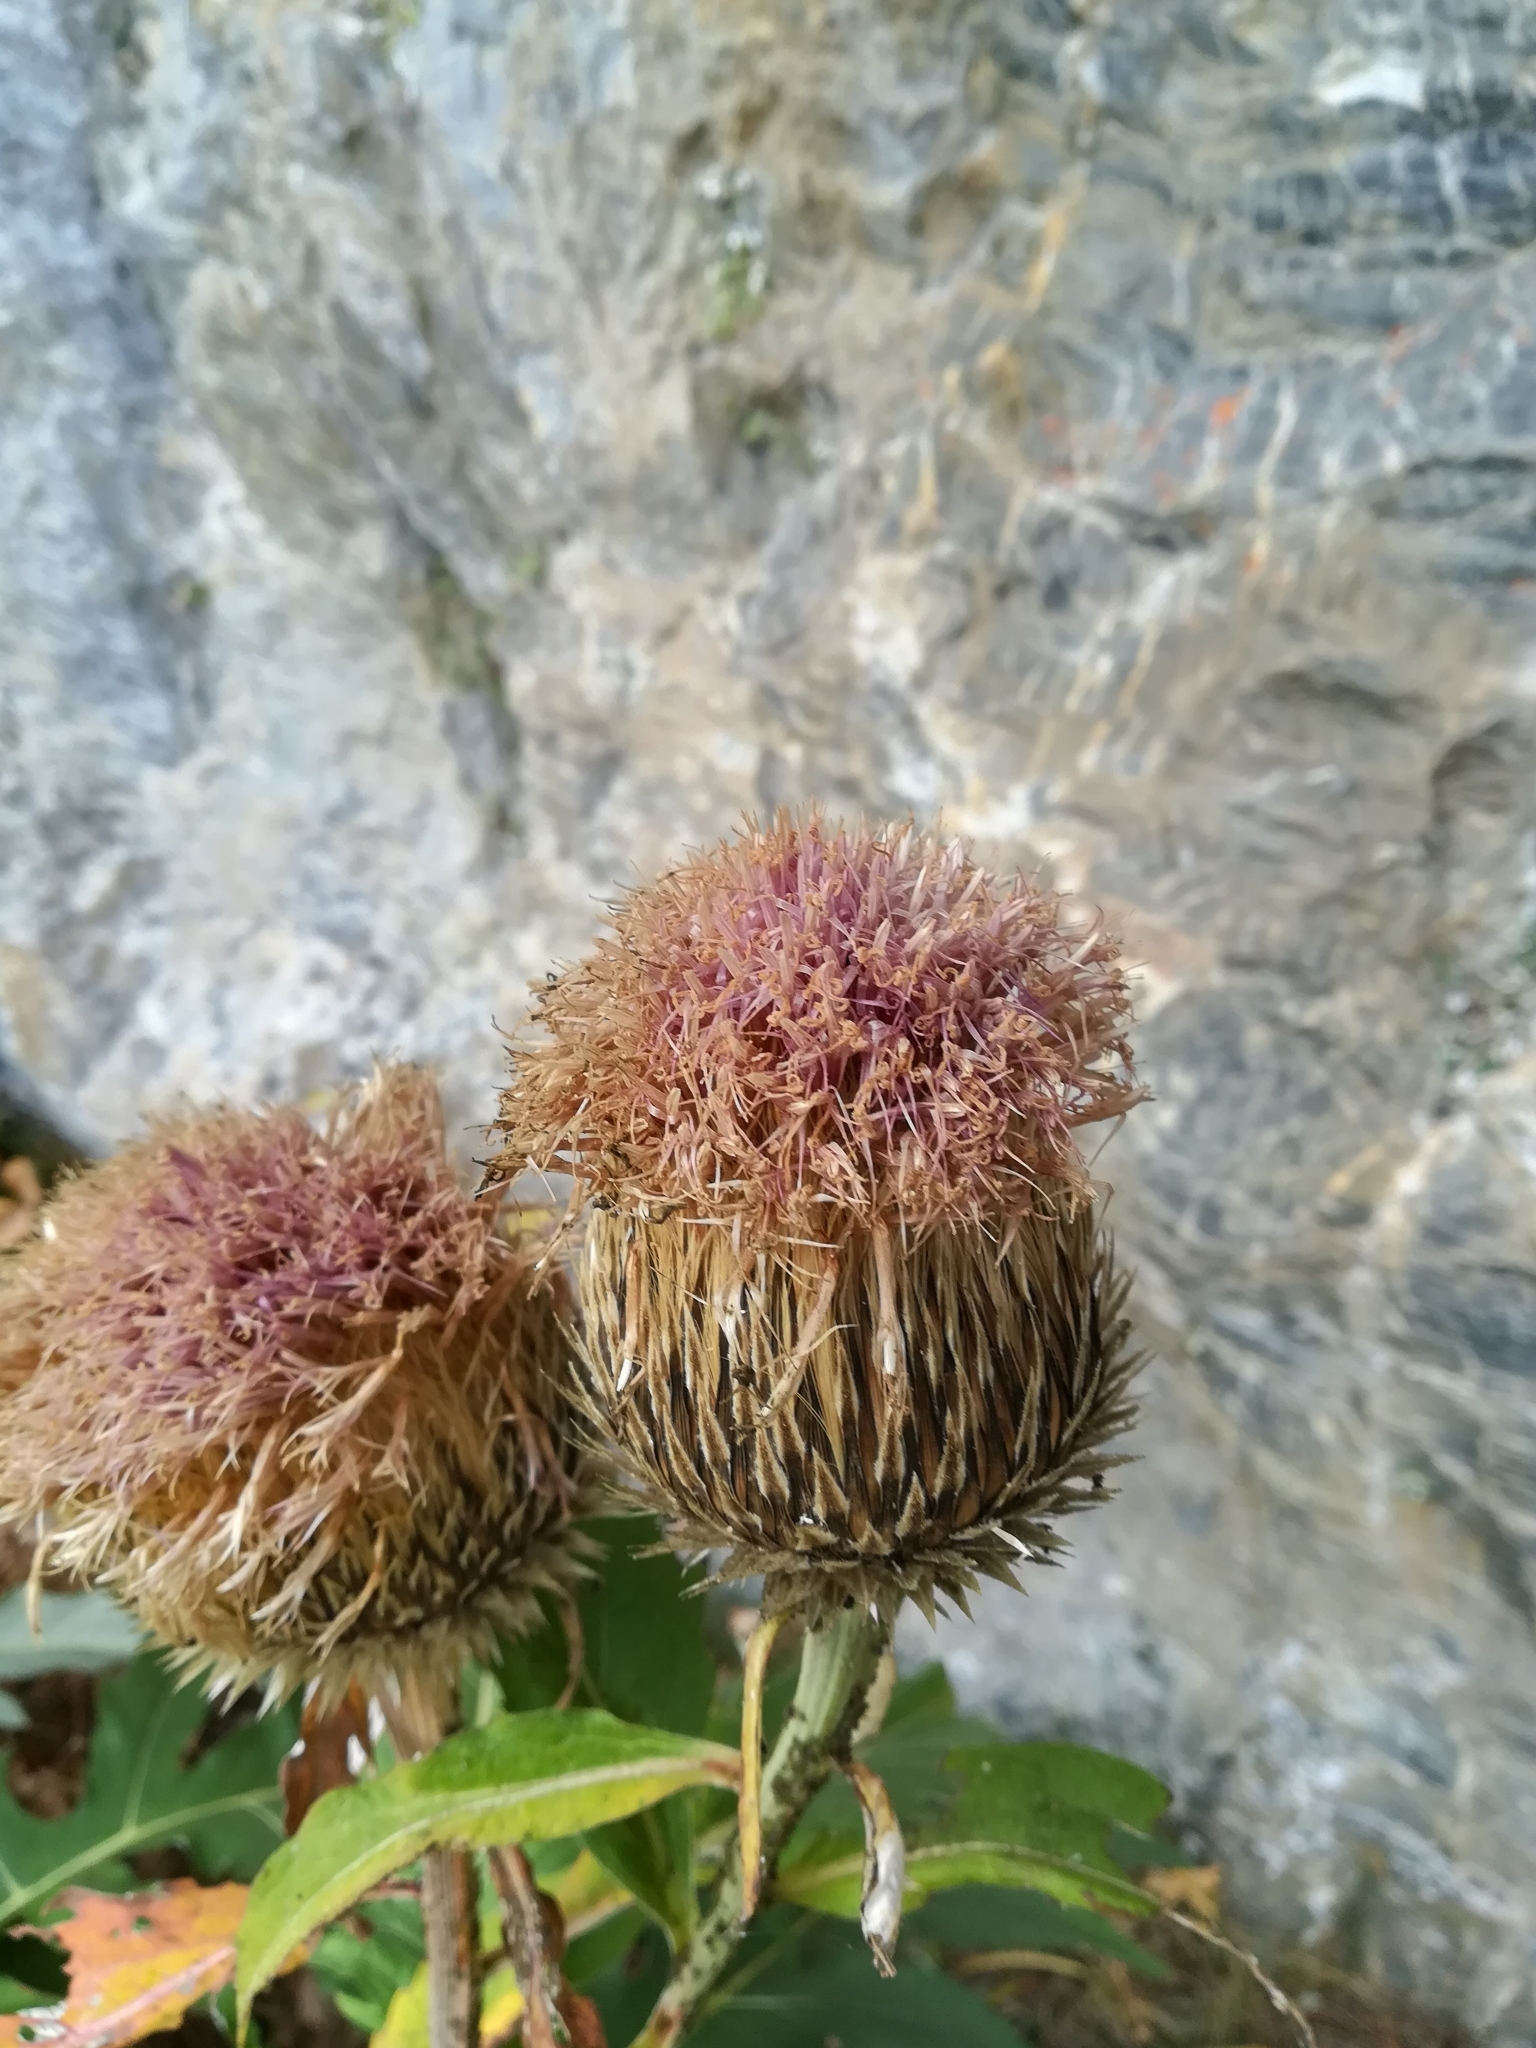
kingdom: Plantae
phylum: Tracheophyta
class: Magnoliopsida
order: Asterales
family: Asteraceae
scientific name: Asteraceae
